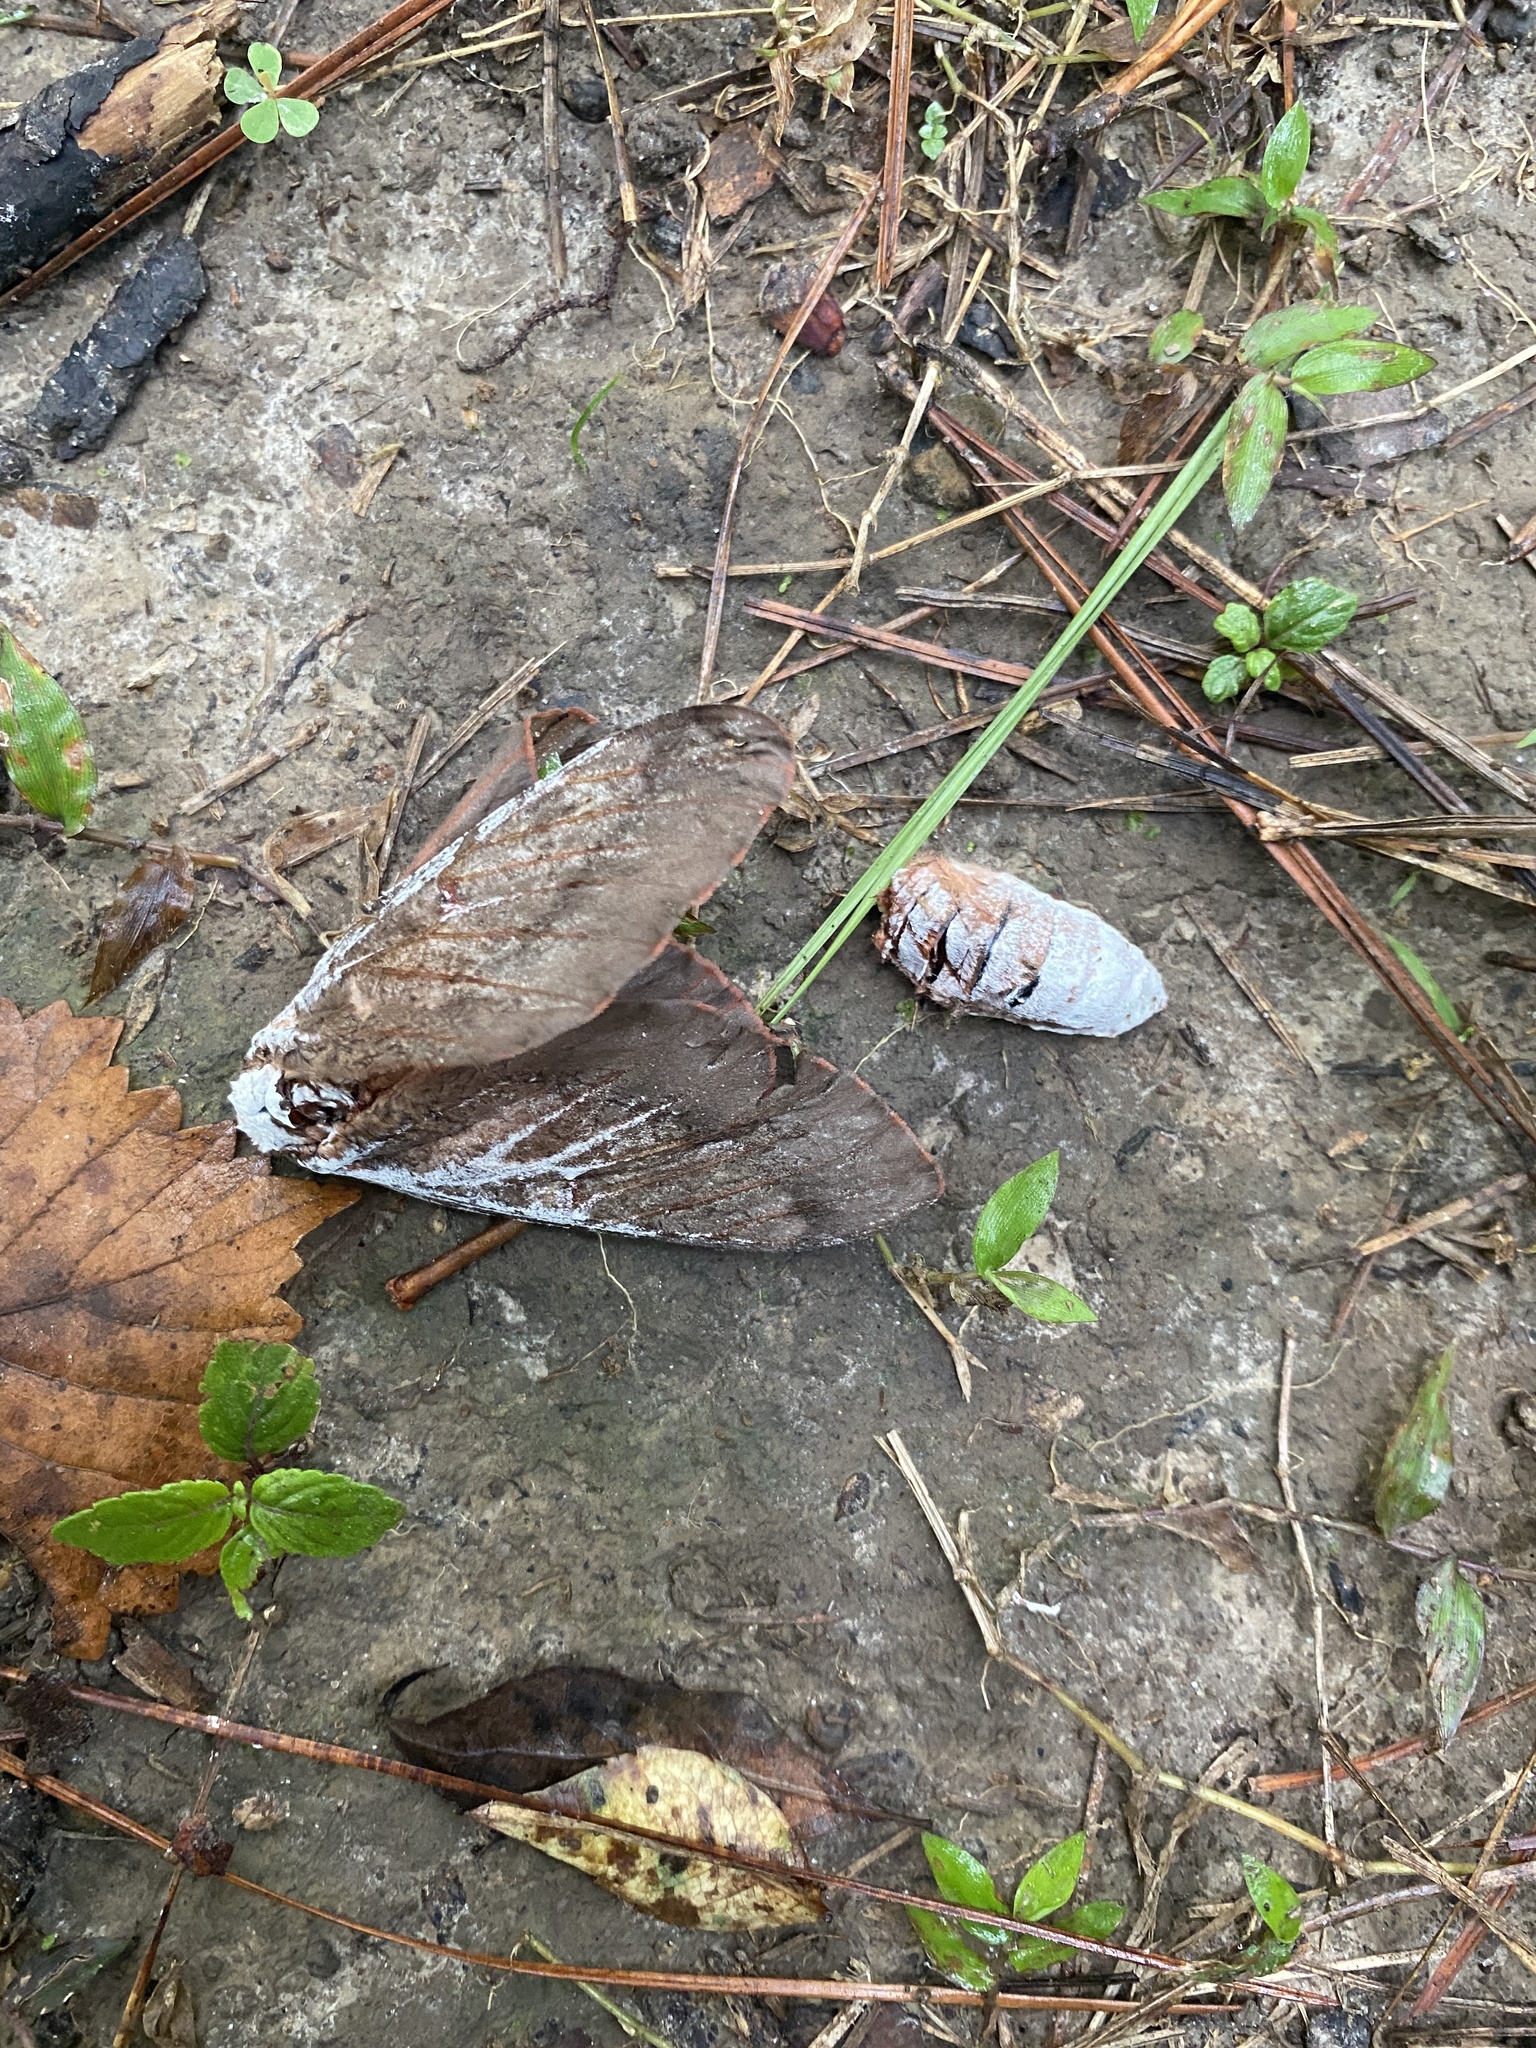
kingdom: Fungi
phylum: Ascomycota
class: Sordariomycetes
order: Hypocreales
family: Cordycipitaceae
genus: Beauveria
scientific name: Beauveria bassiana
